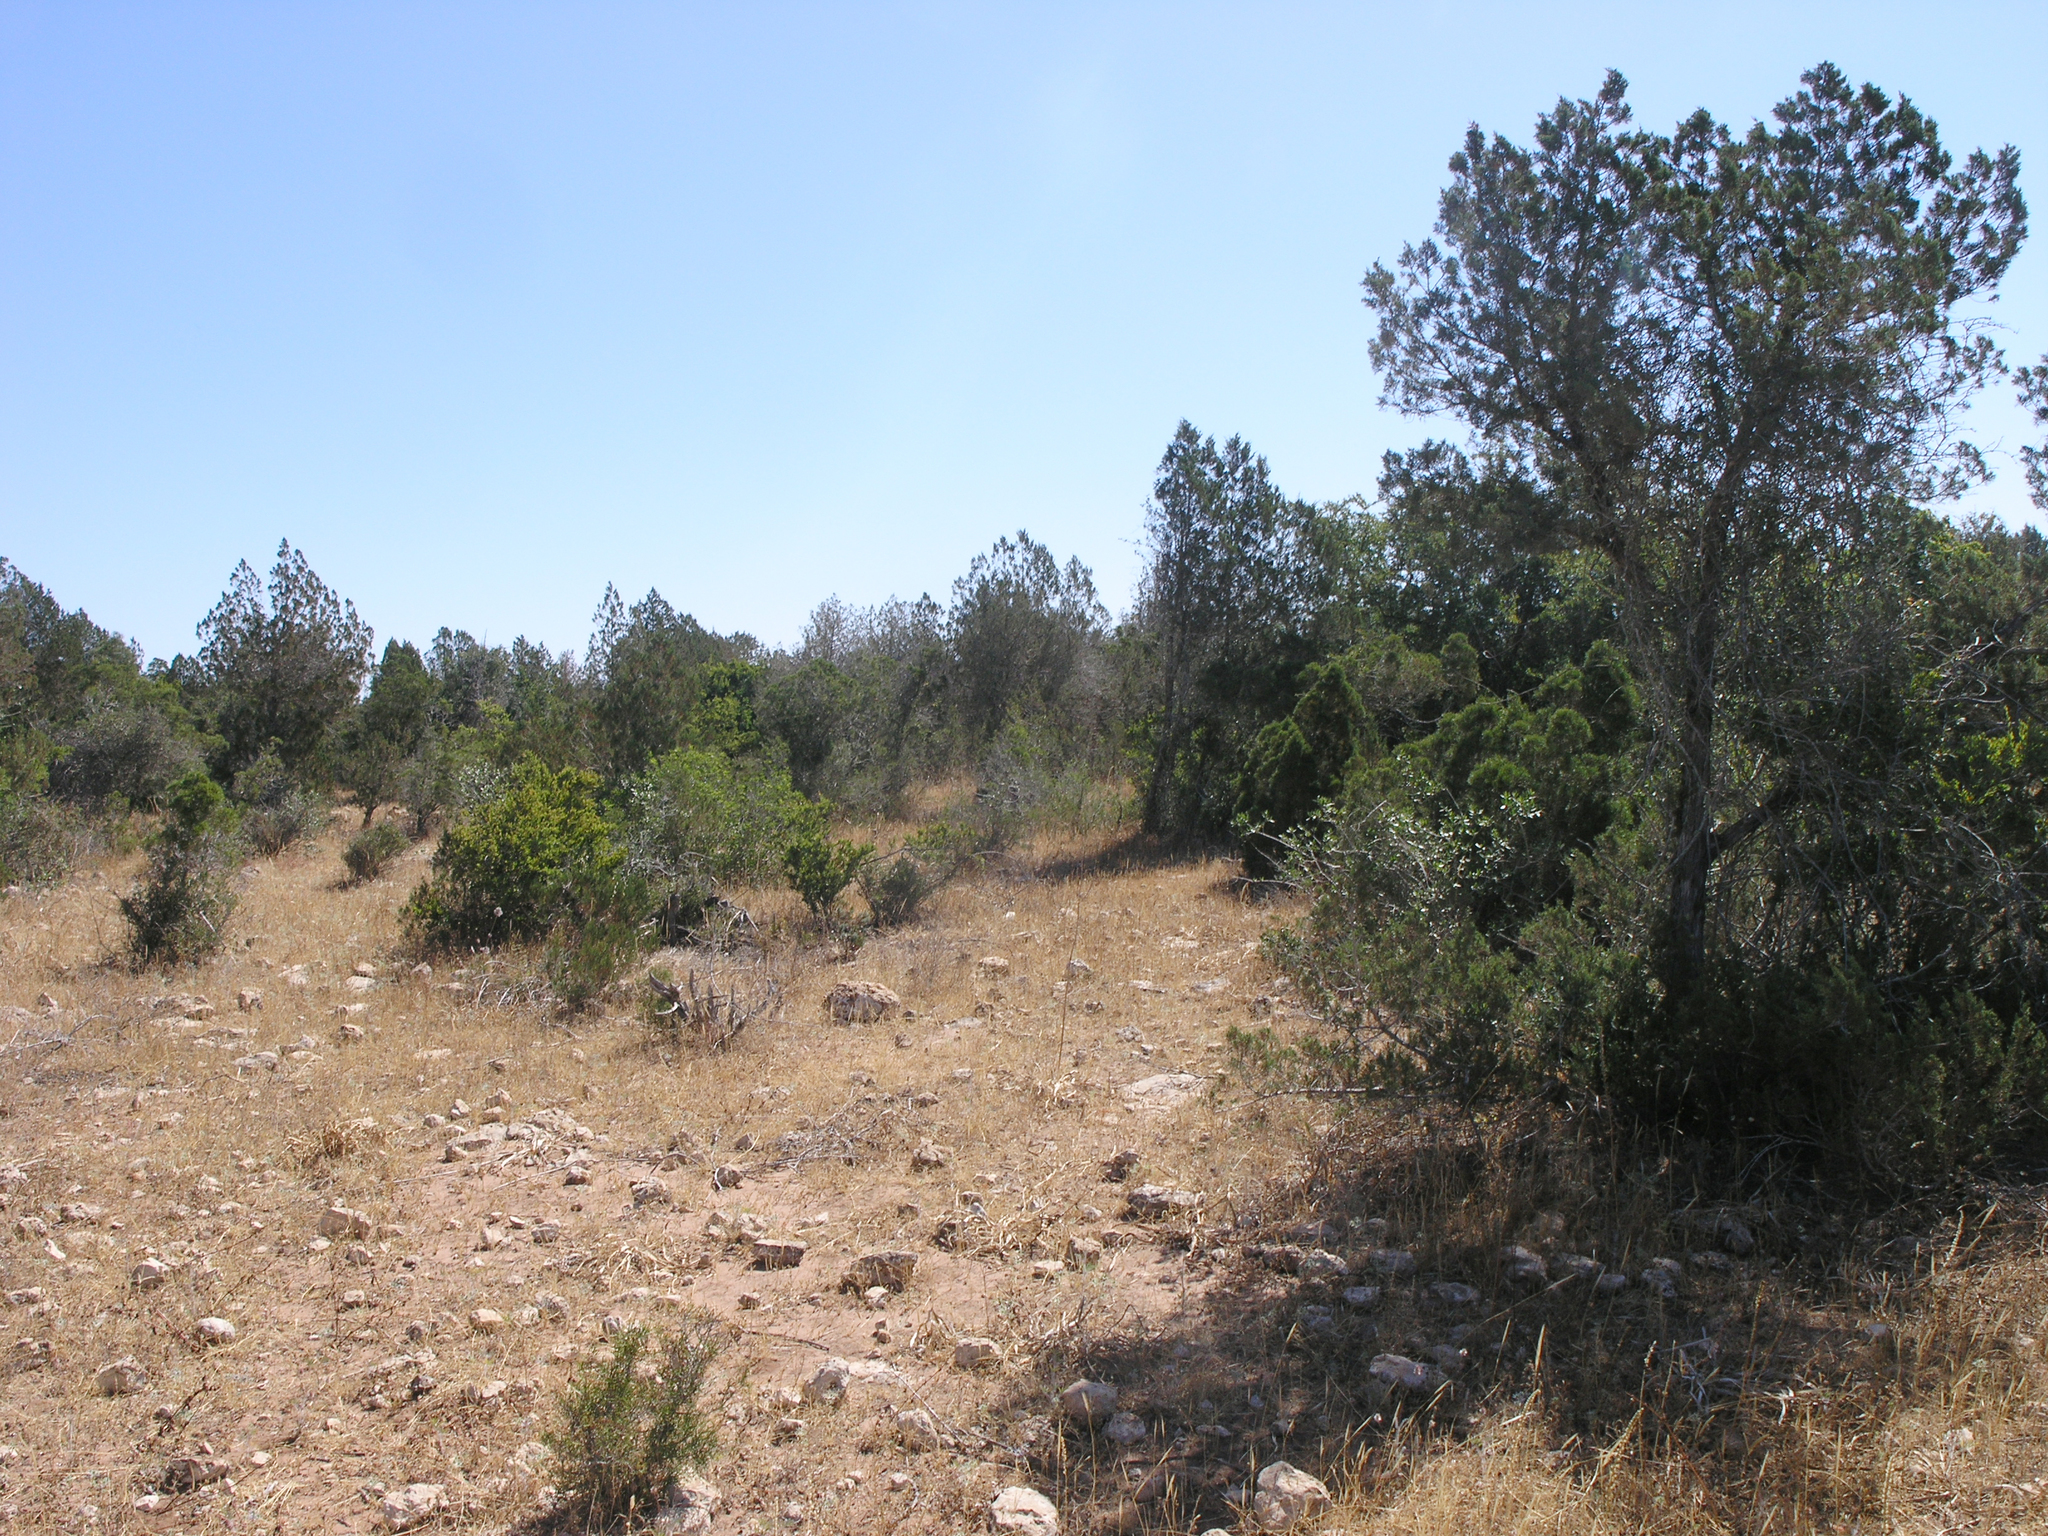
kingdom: Plantae
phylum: Tracheophyta
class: Pinopsida
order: Pinales
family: Cupressaceae
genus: Juniperus
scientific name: Juniperus phoenicea
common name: Phoenician juniper
